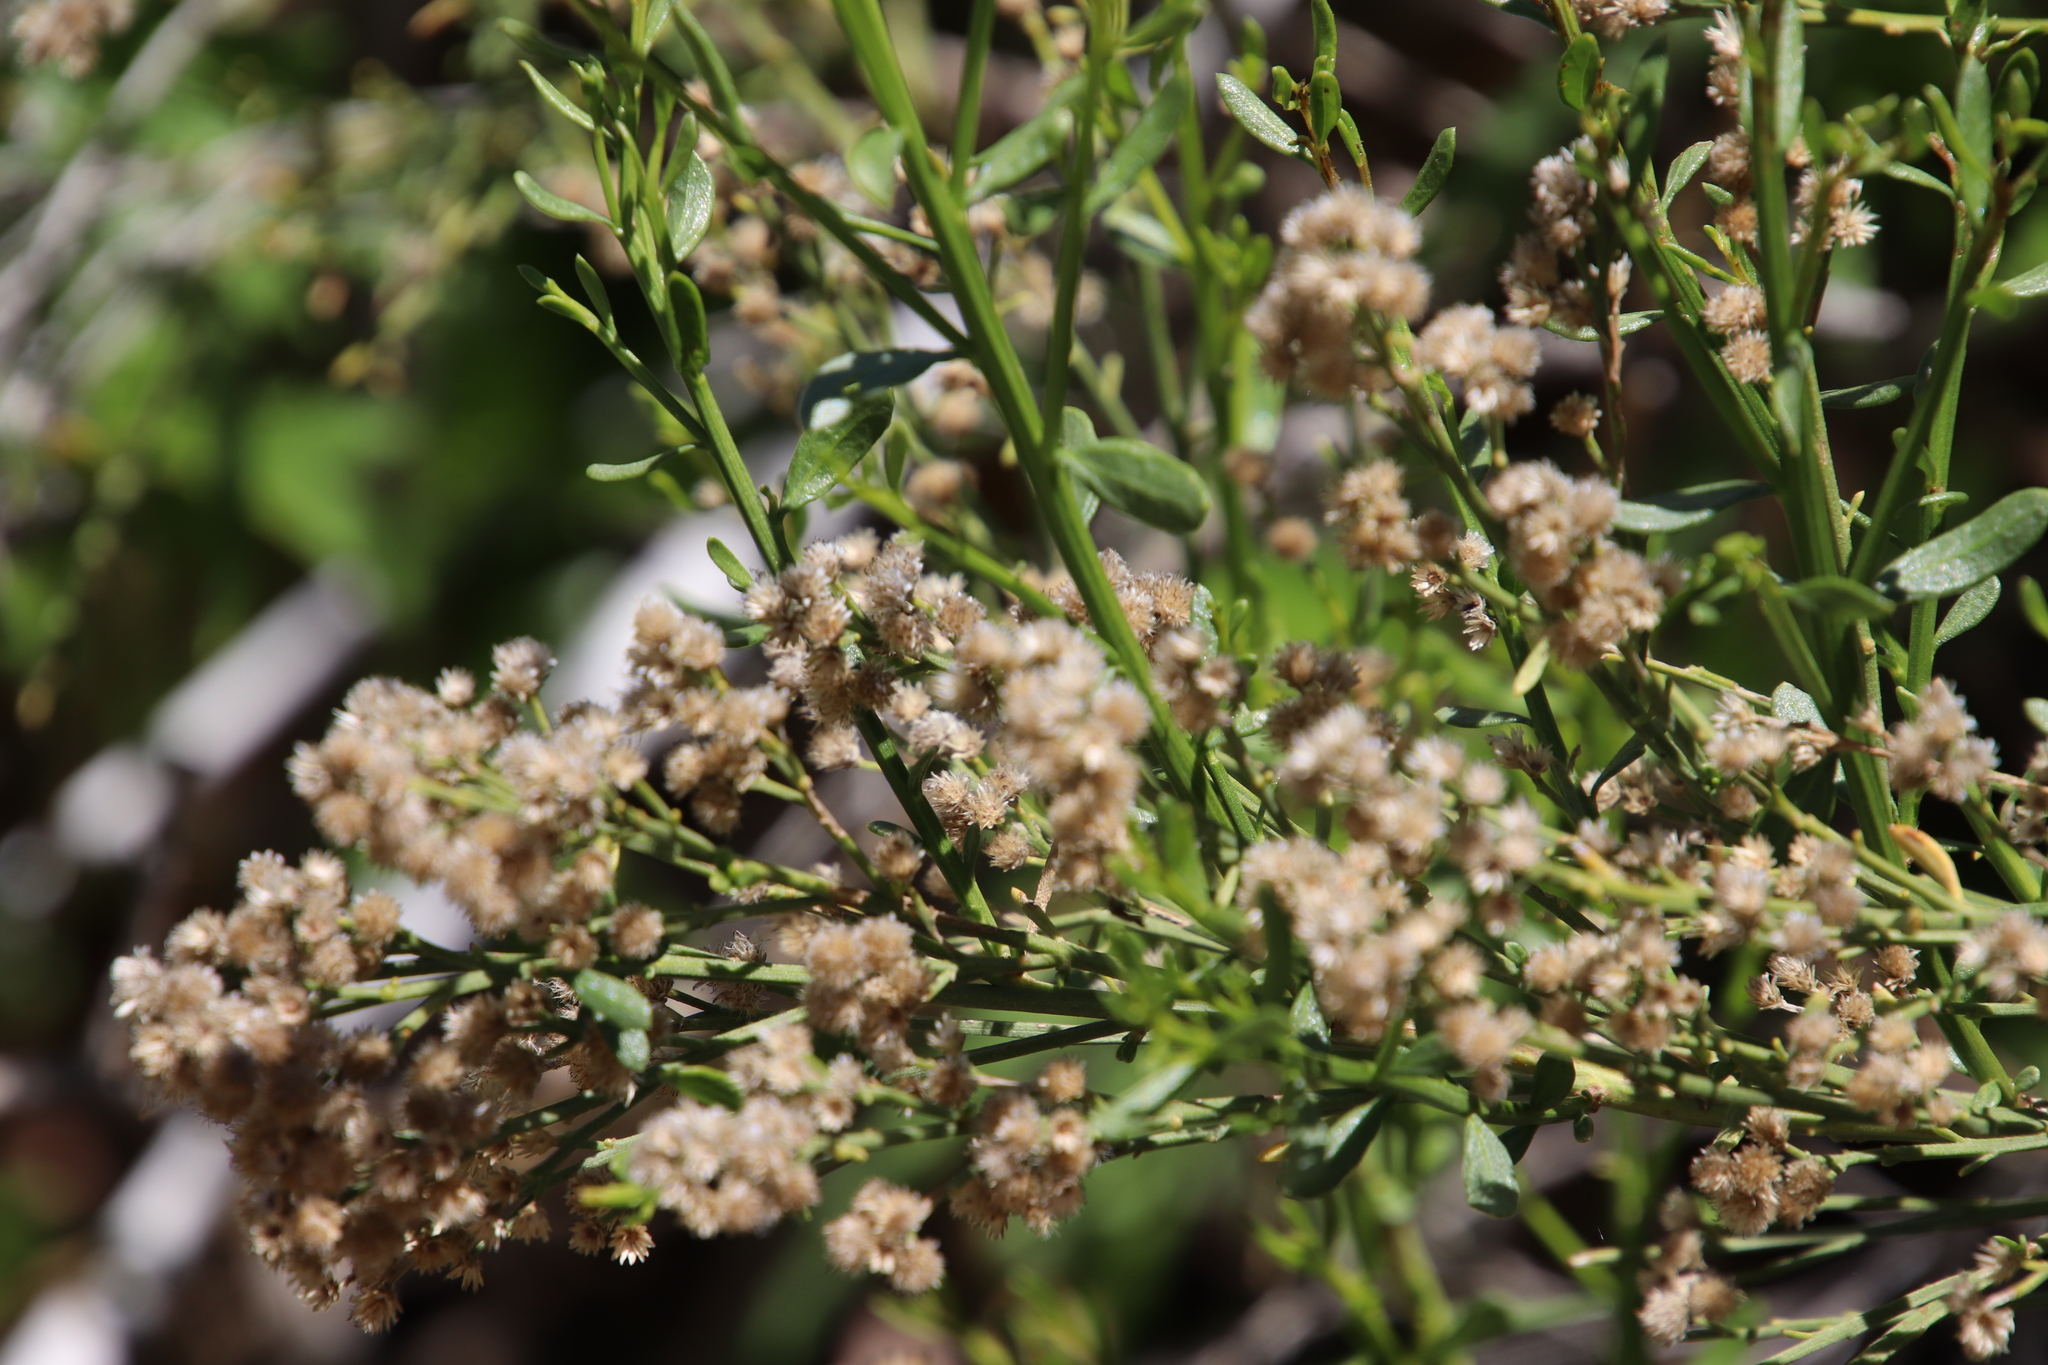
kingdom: Plantae
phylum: Tracheophyta
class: Magnoliopsida
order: Asterales
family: Asteraceae
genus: Baccharis
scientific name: Baccharis sergiloides
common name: Desert baccharis
